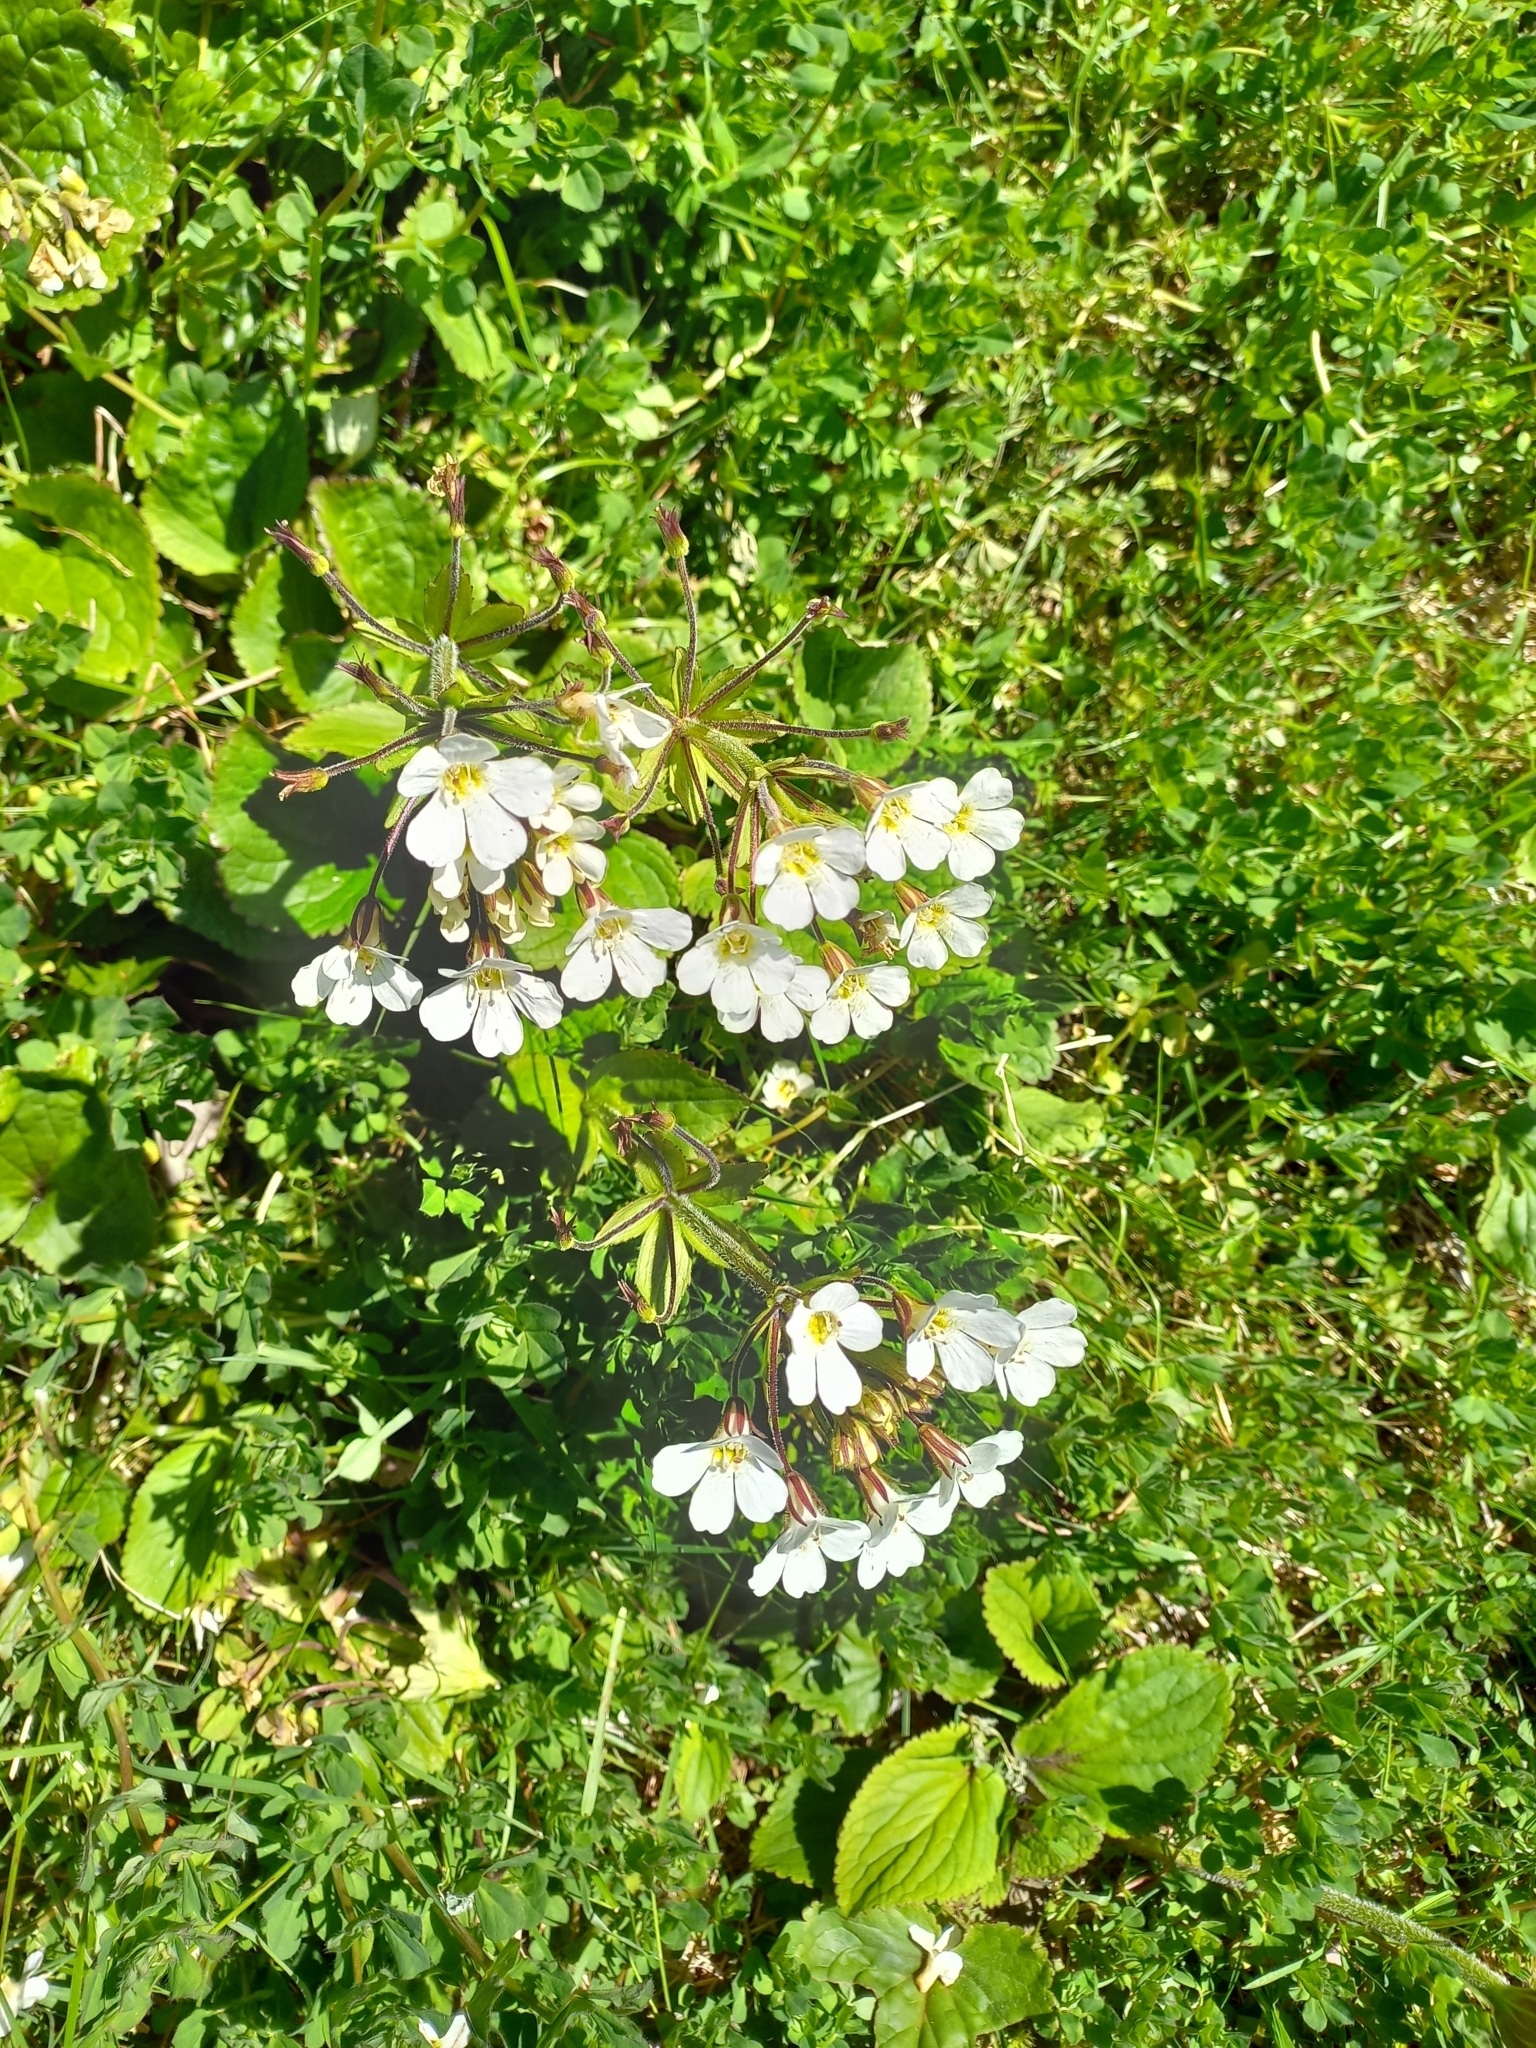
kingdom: Plantae
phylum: Tracheophyta
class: Magnoliopsida
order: Lamiales
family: Plantaginaceae
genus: Ourisia
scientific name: Ourisia macrophylla
